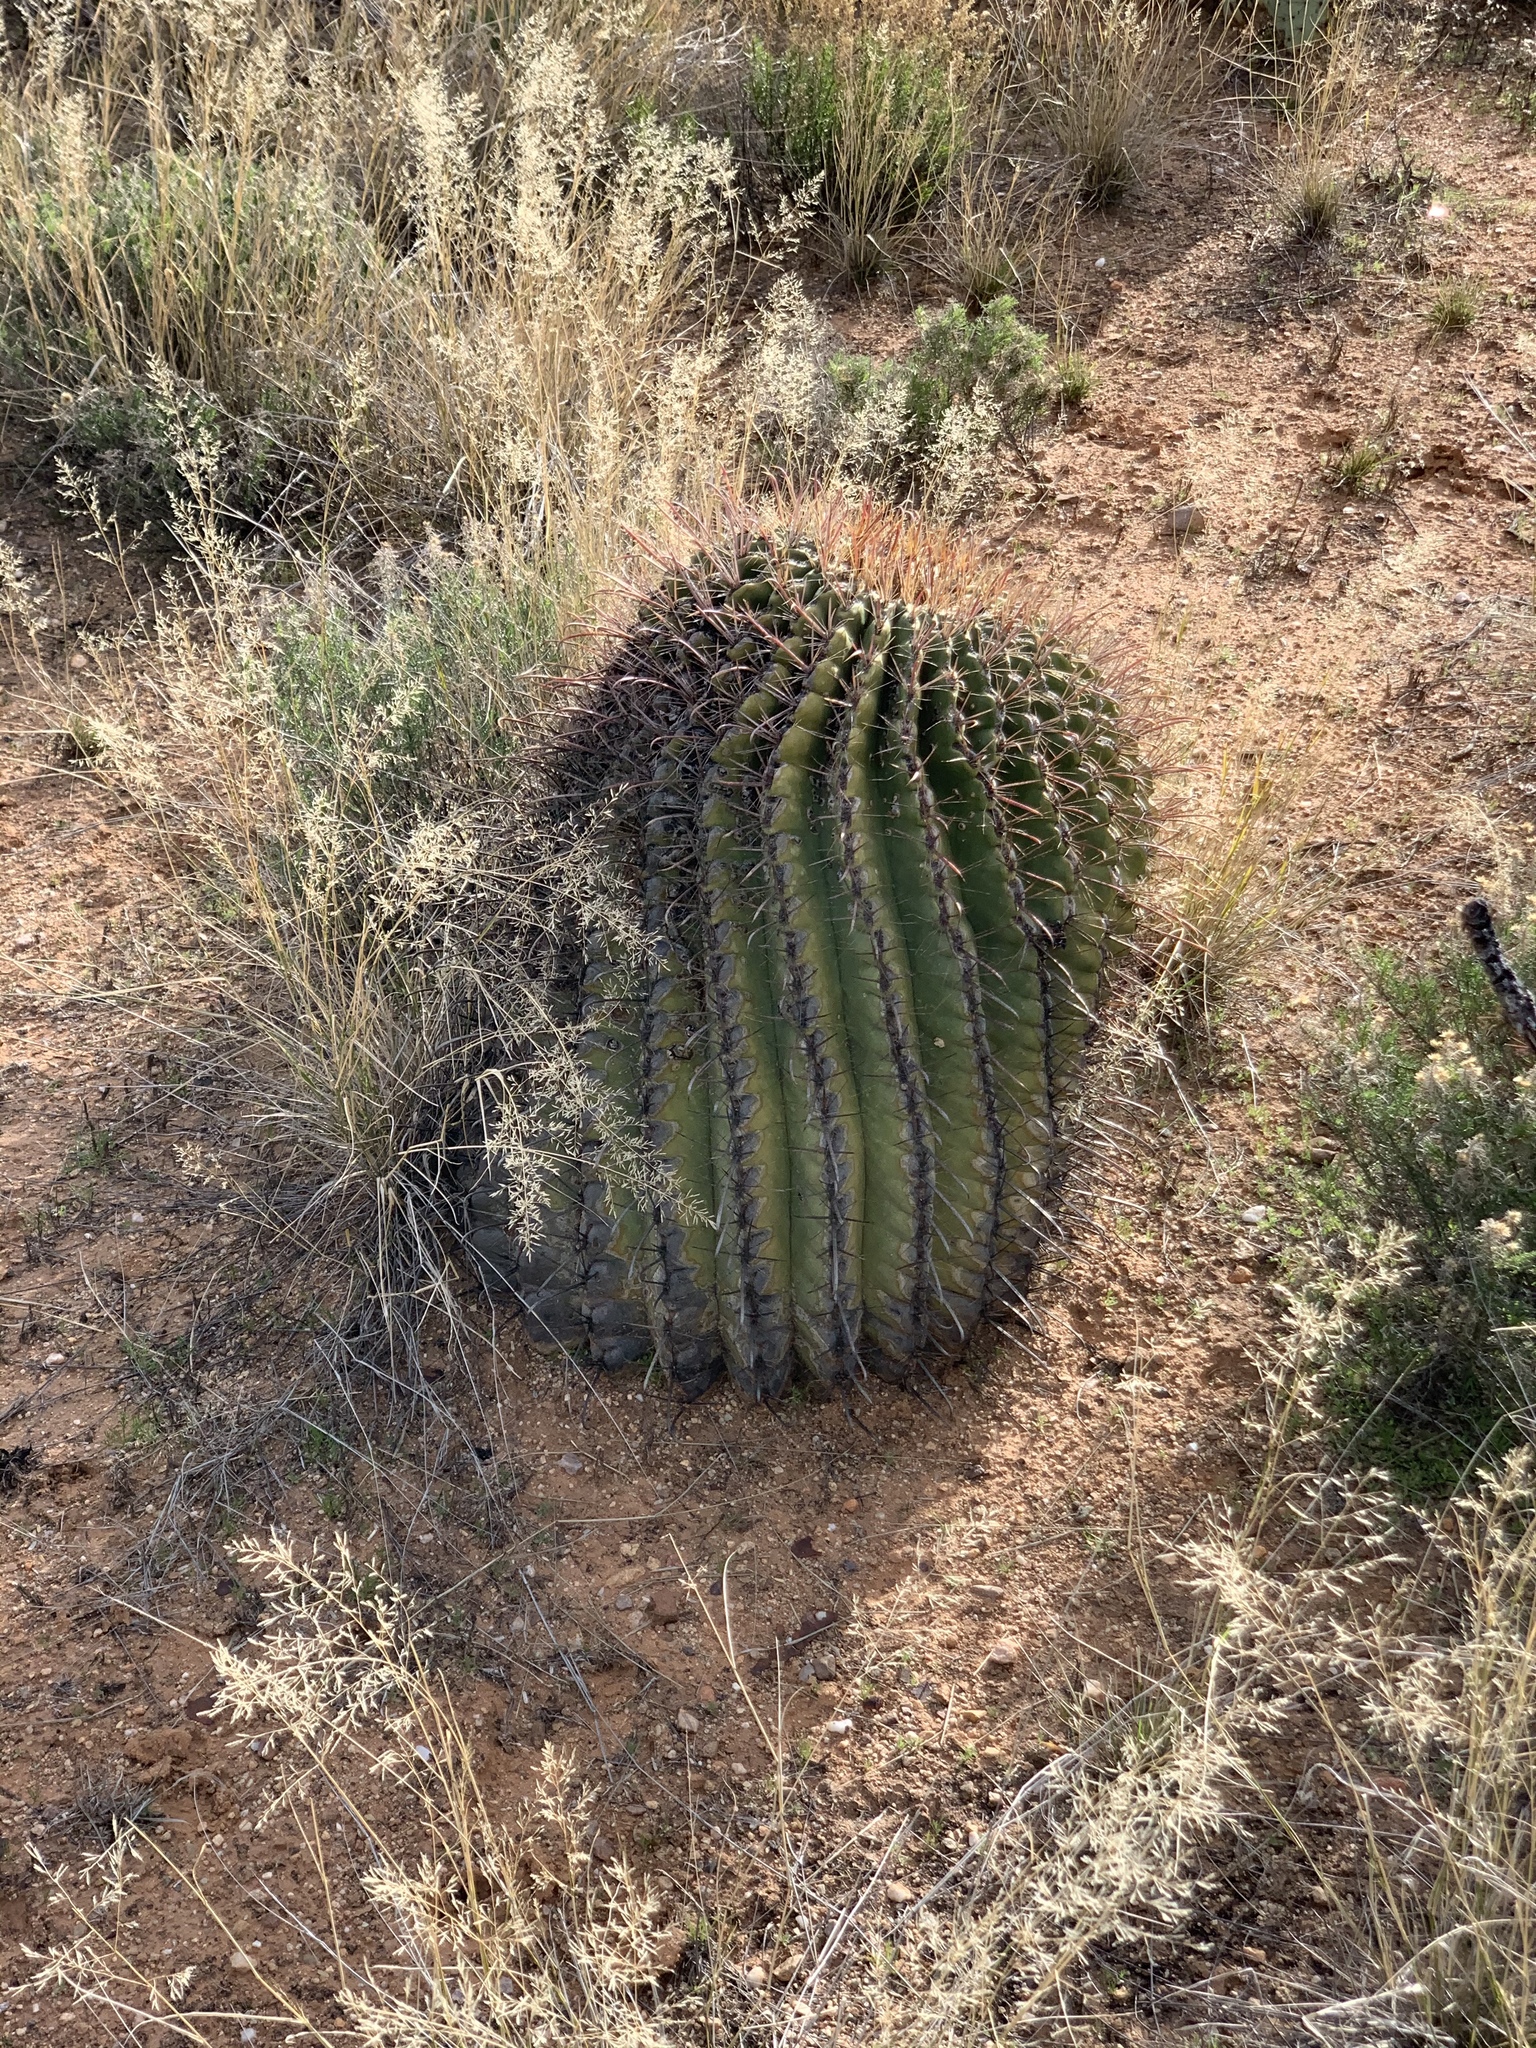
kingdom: Plantae
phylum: Tracheophyta
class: Magnoliopsida
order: Caryophyllales
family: Cactaceae
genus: Ferocactus
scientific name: Ferocactus wislizeni
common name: Candy barrel cactus
